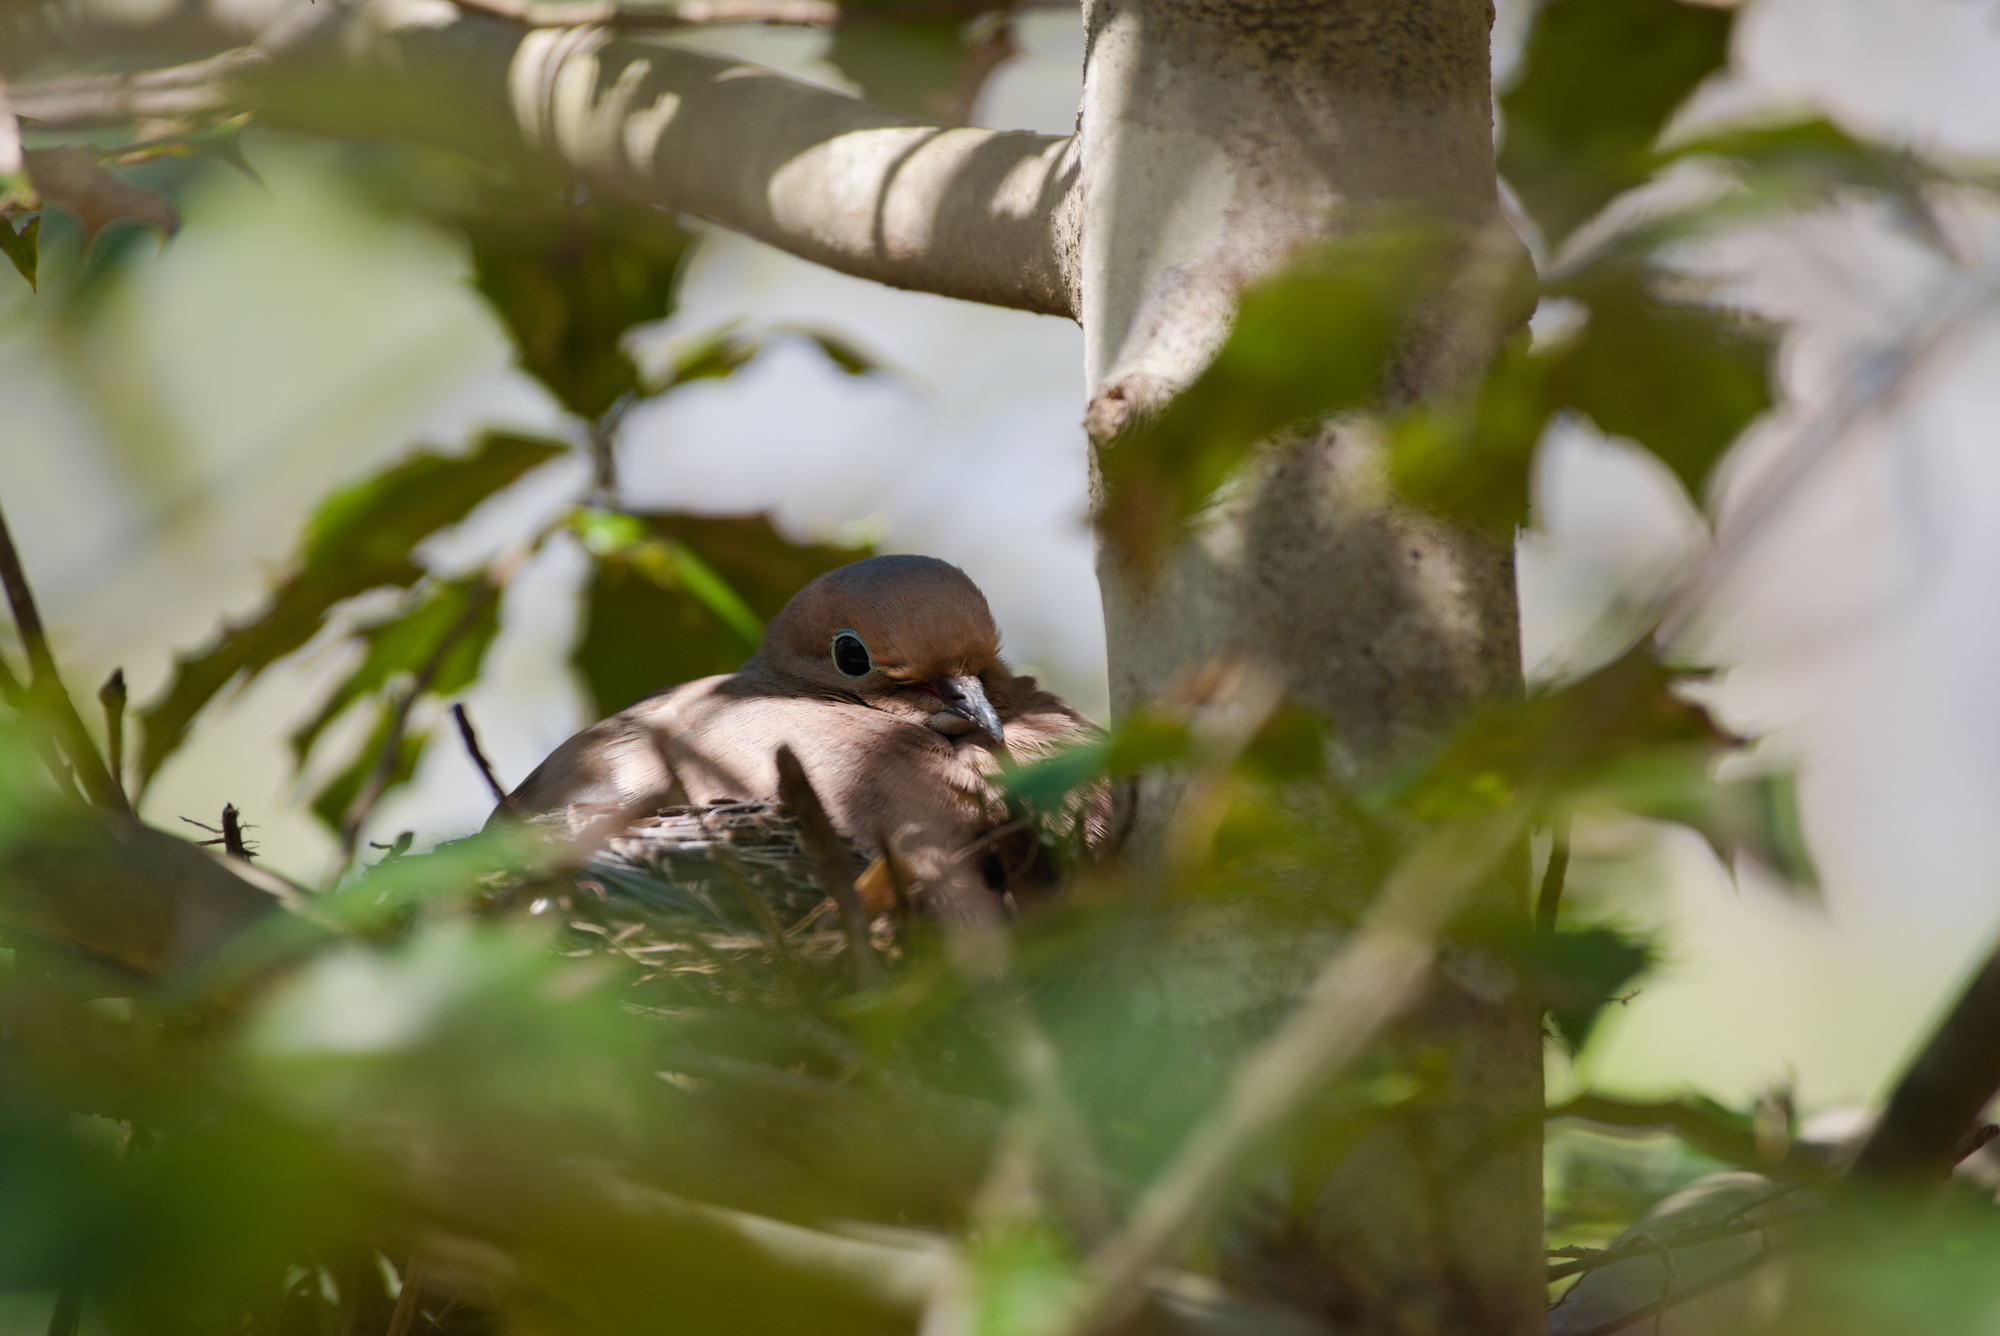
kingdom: Animalia
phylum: Chordata
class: Aves
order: Columbiformes
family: Columbidae
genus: Zenaida
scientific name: Zenaida macroura
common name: Mourning dove
